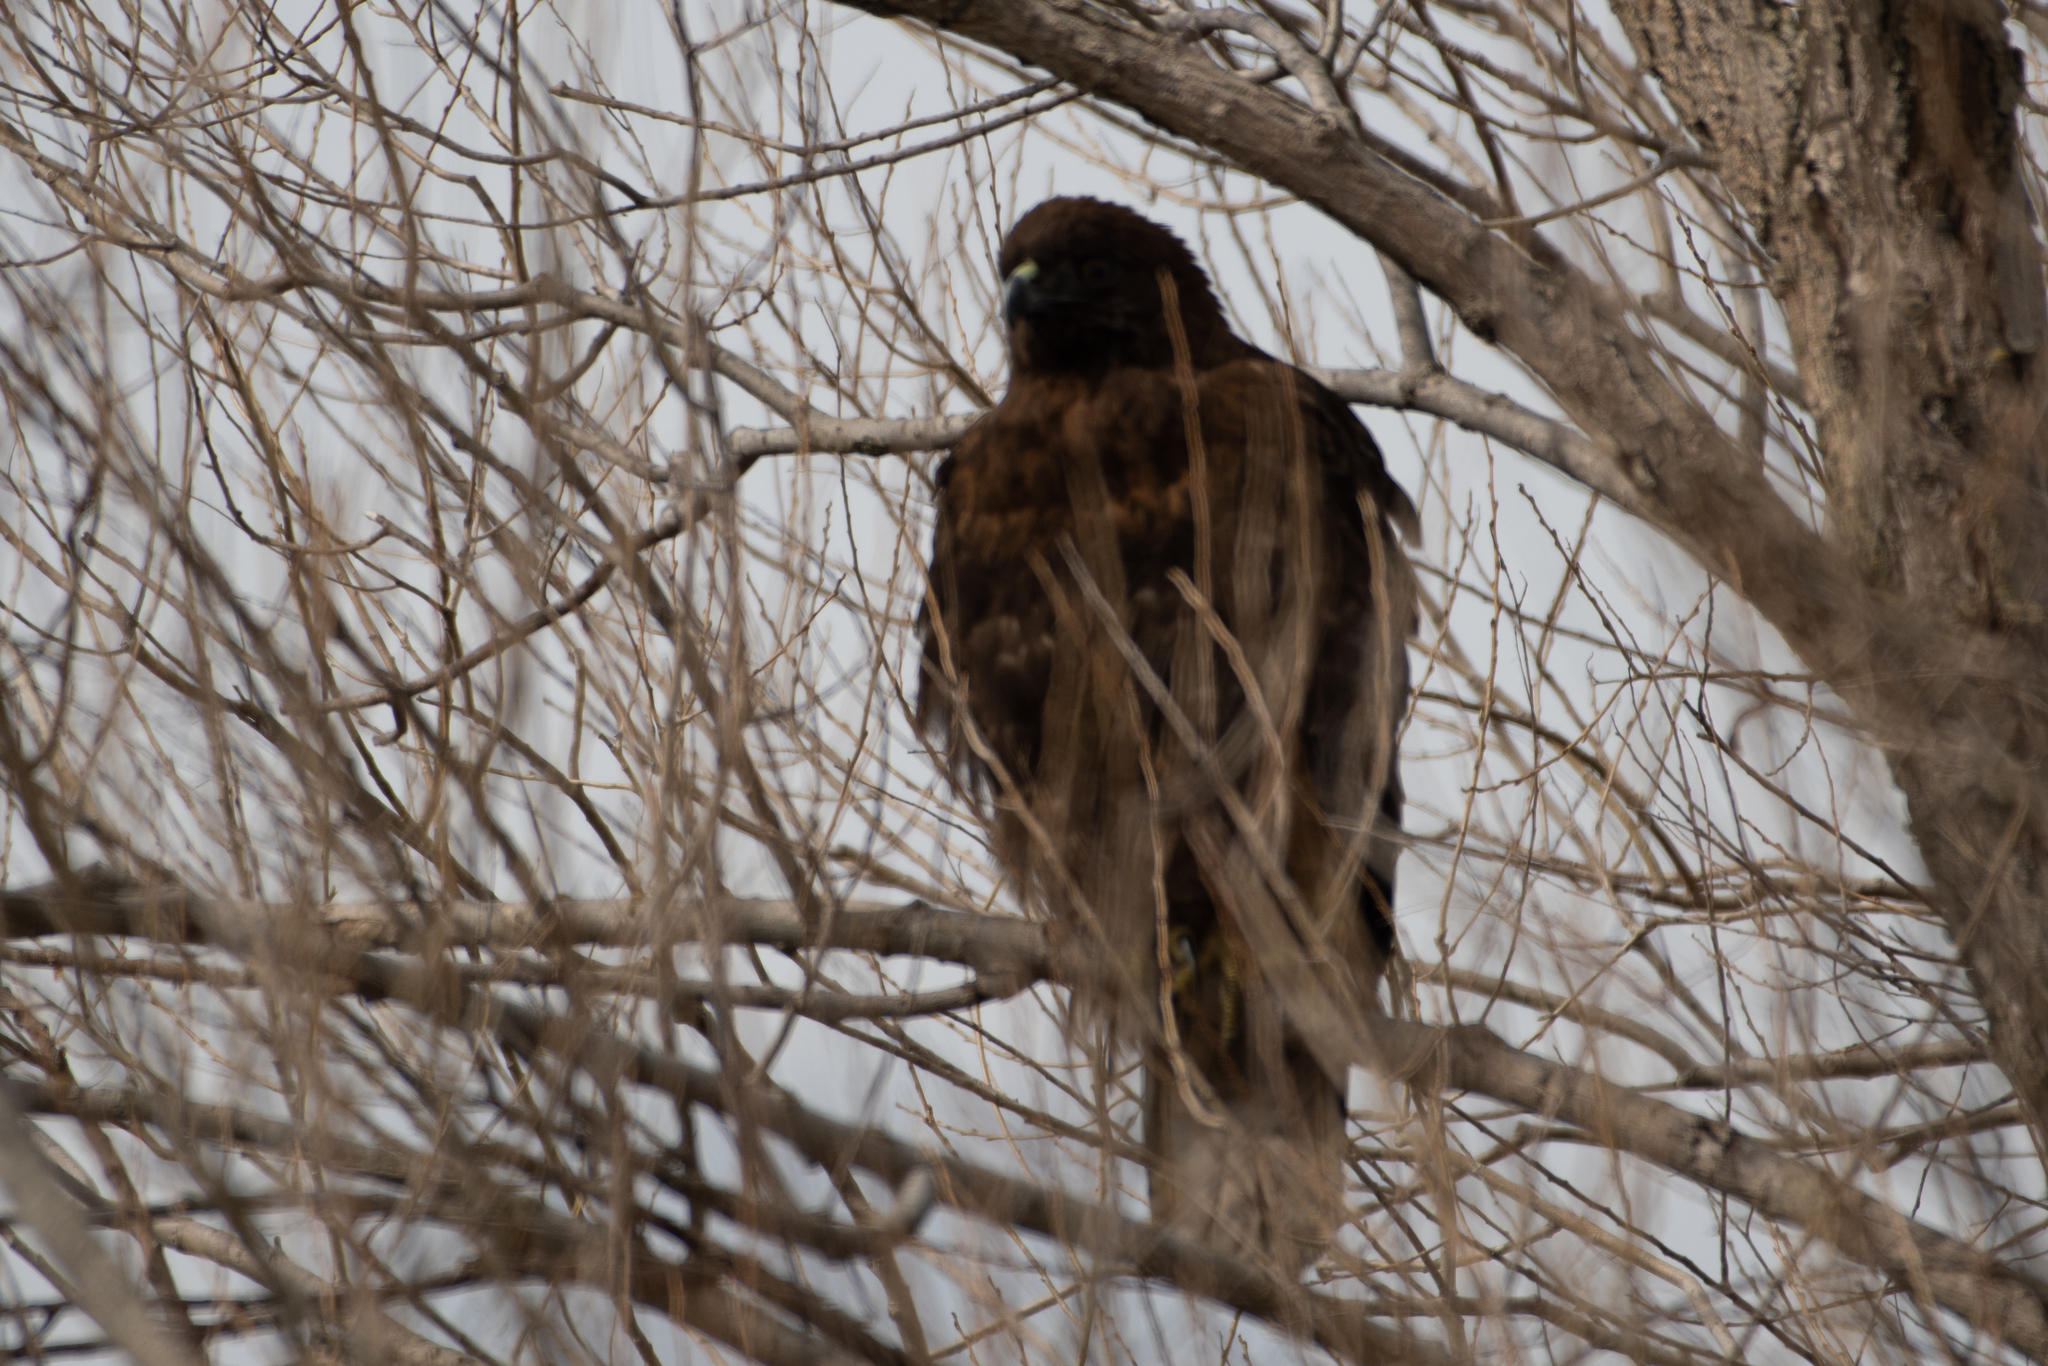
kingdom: Animalia
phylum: Chordata
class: Aves
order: Accipitriformes
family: Accipitridae
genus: Buteo
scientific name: Buteo jamaicensis
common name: Red-tailed hawk
